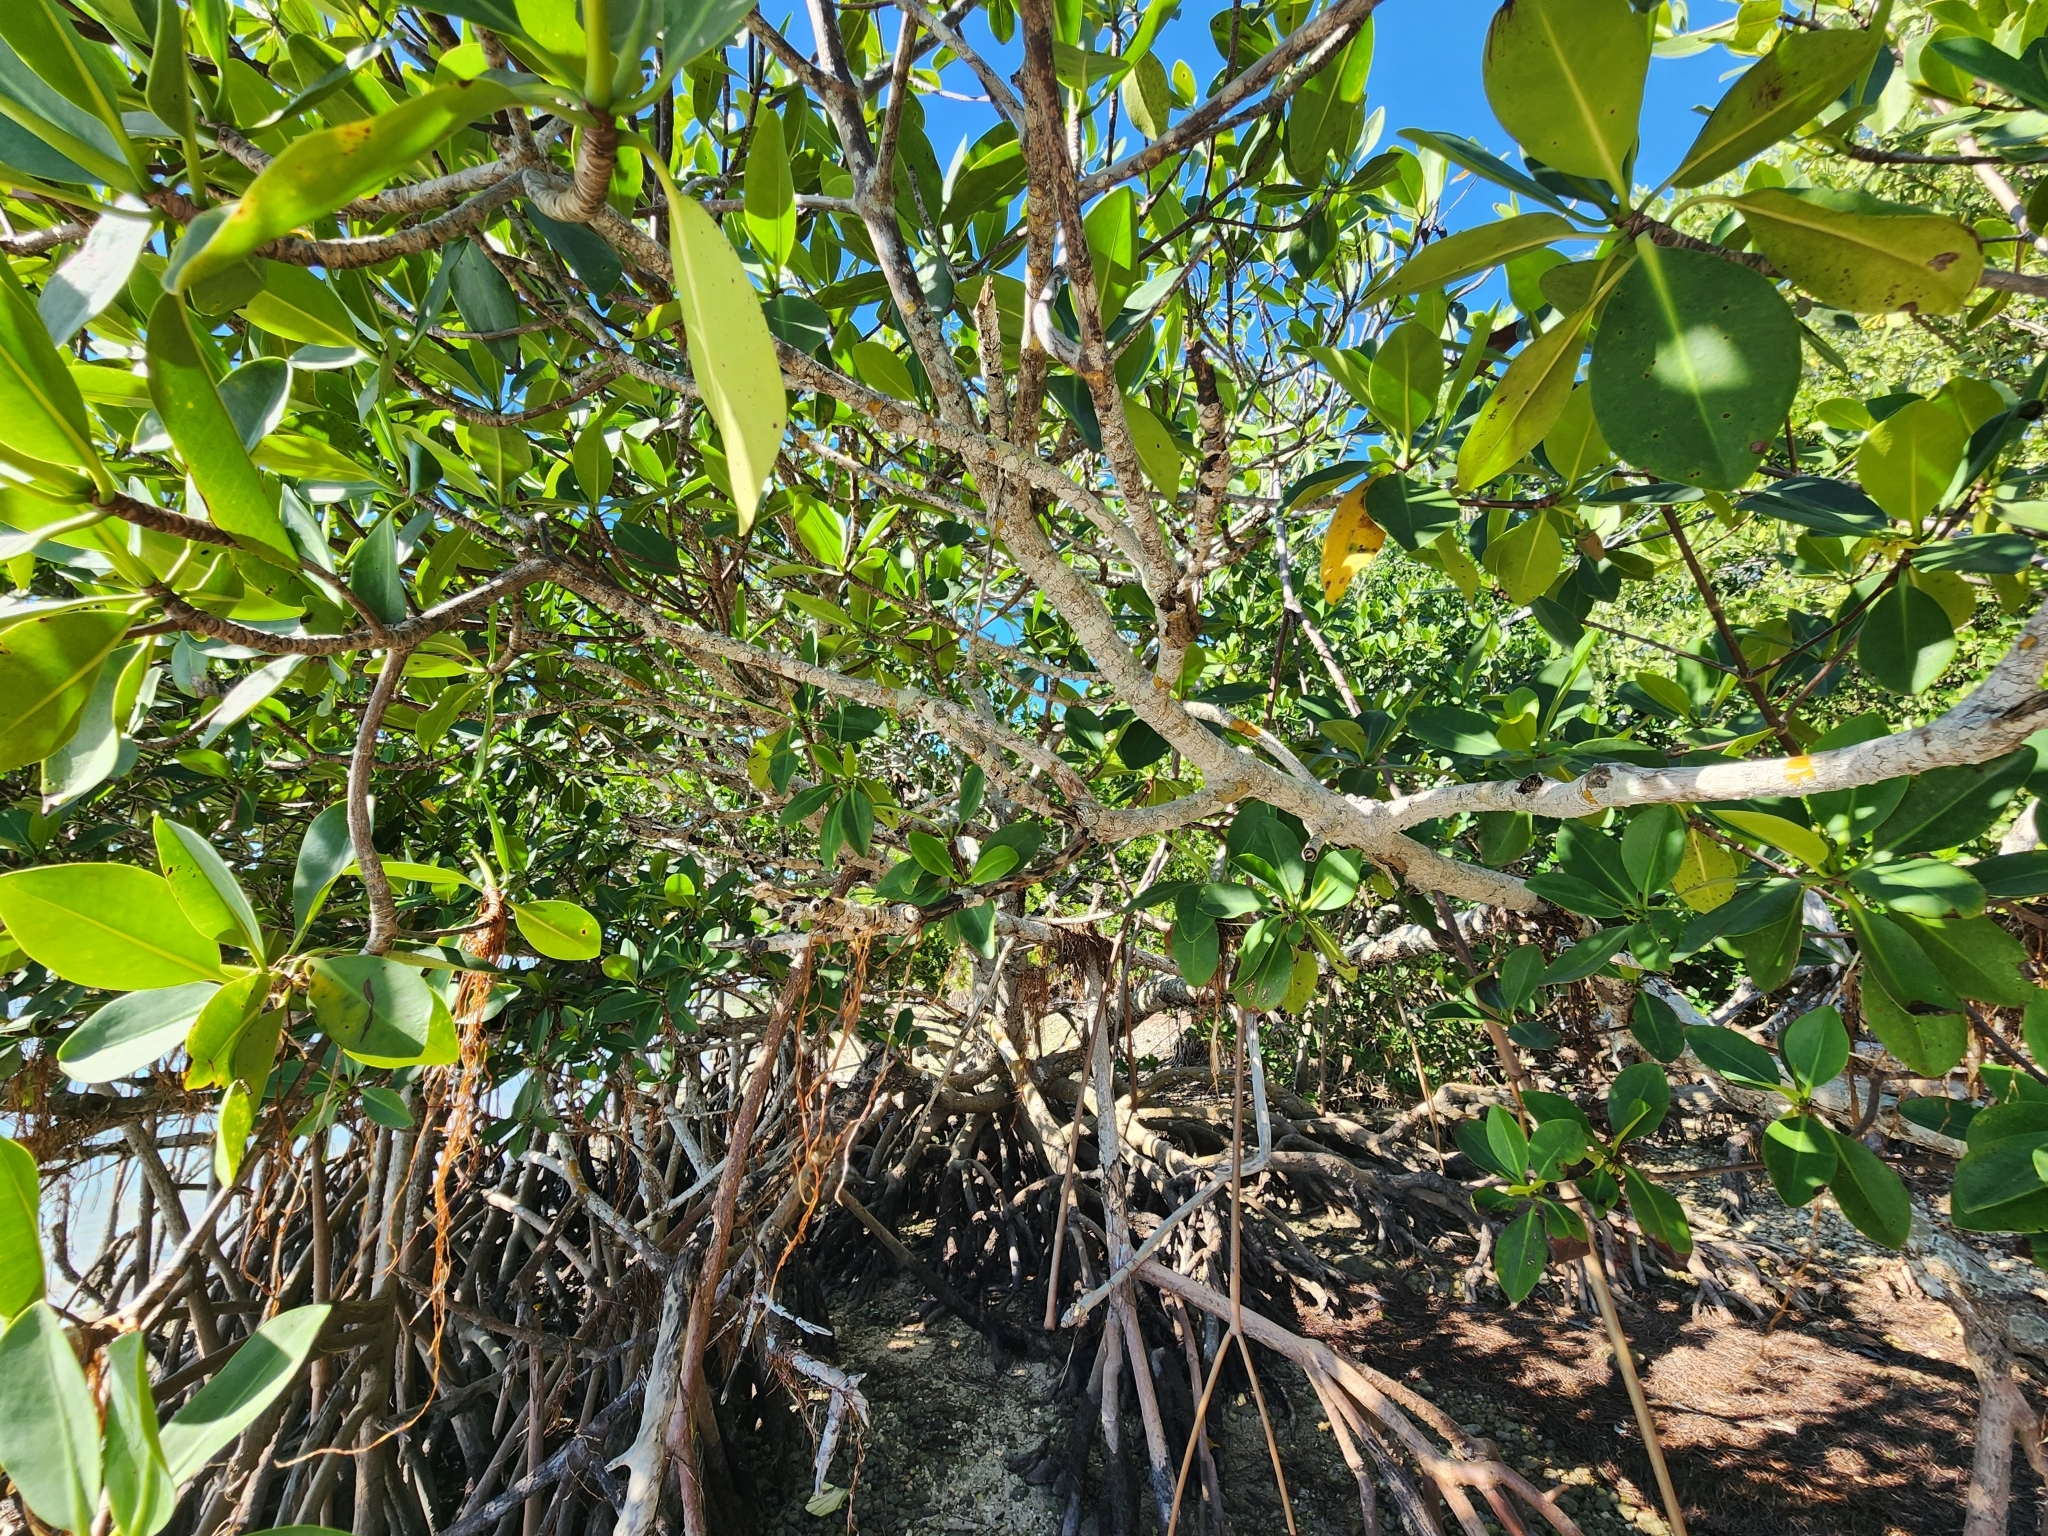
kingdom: Plantae
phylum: Tracheophyta
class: Magnoliopsida
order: Malpighiales
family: Rhizophoraceae
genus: Rhizophora
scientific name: Rhizophora mangle
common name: Red mangrove
